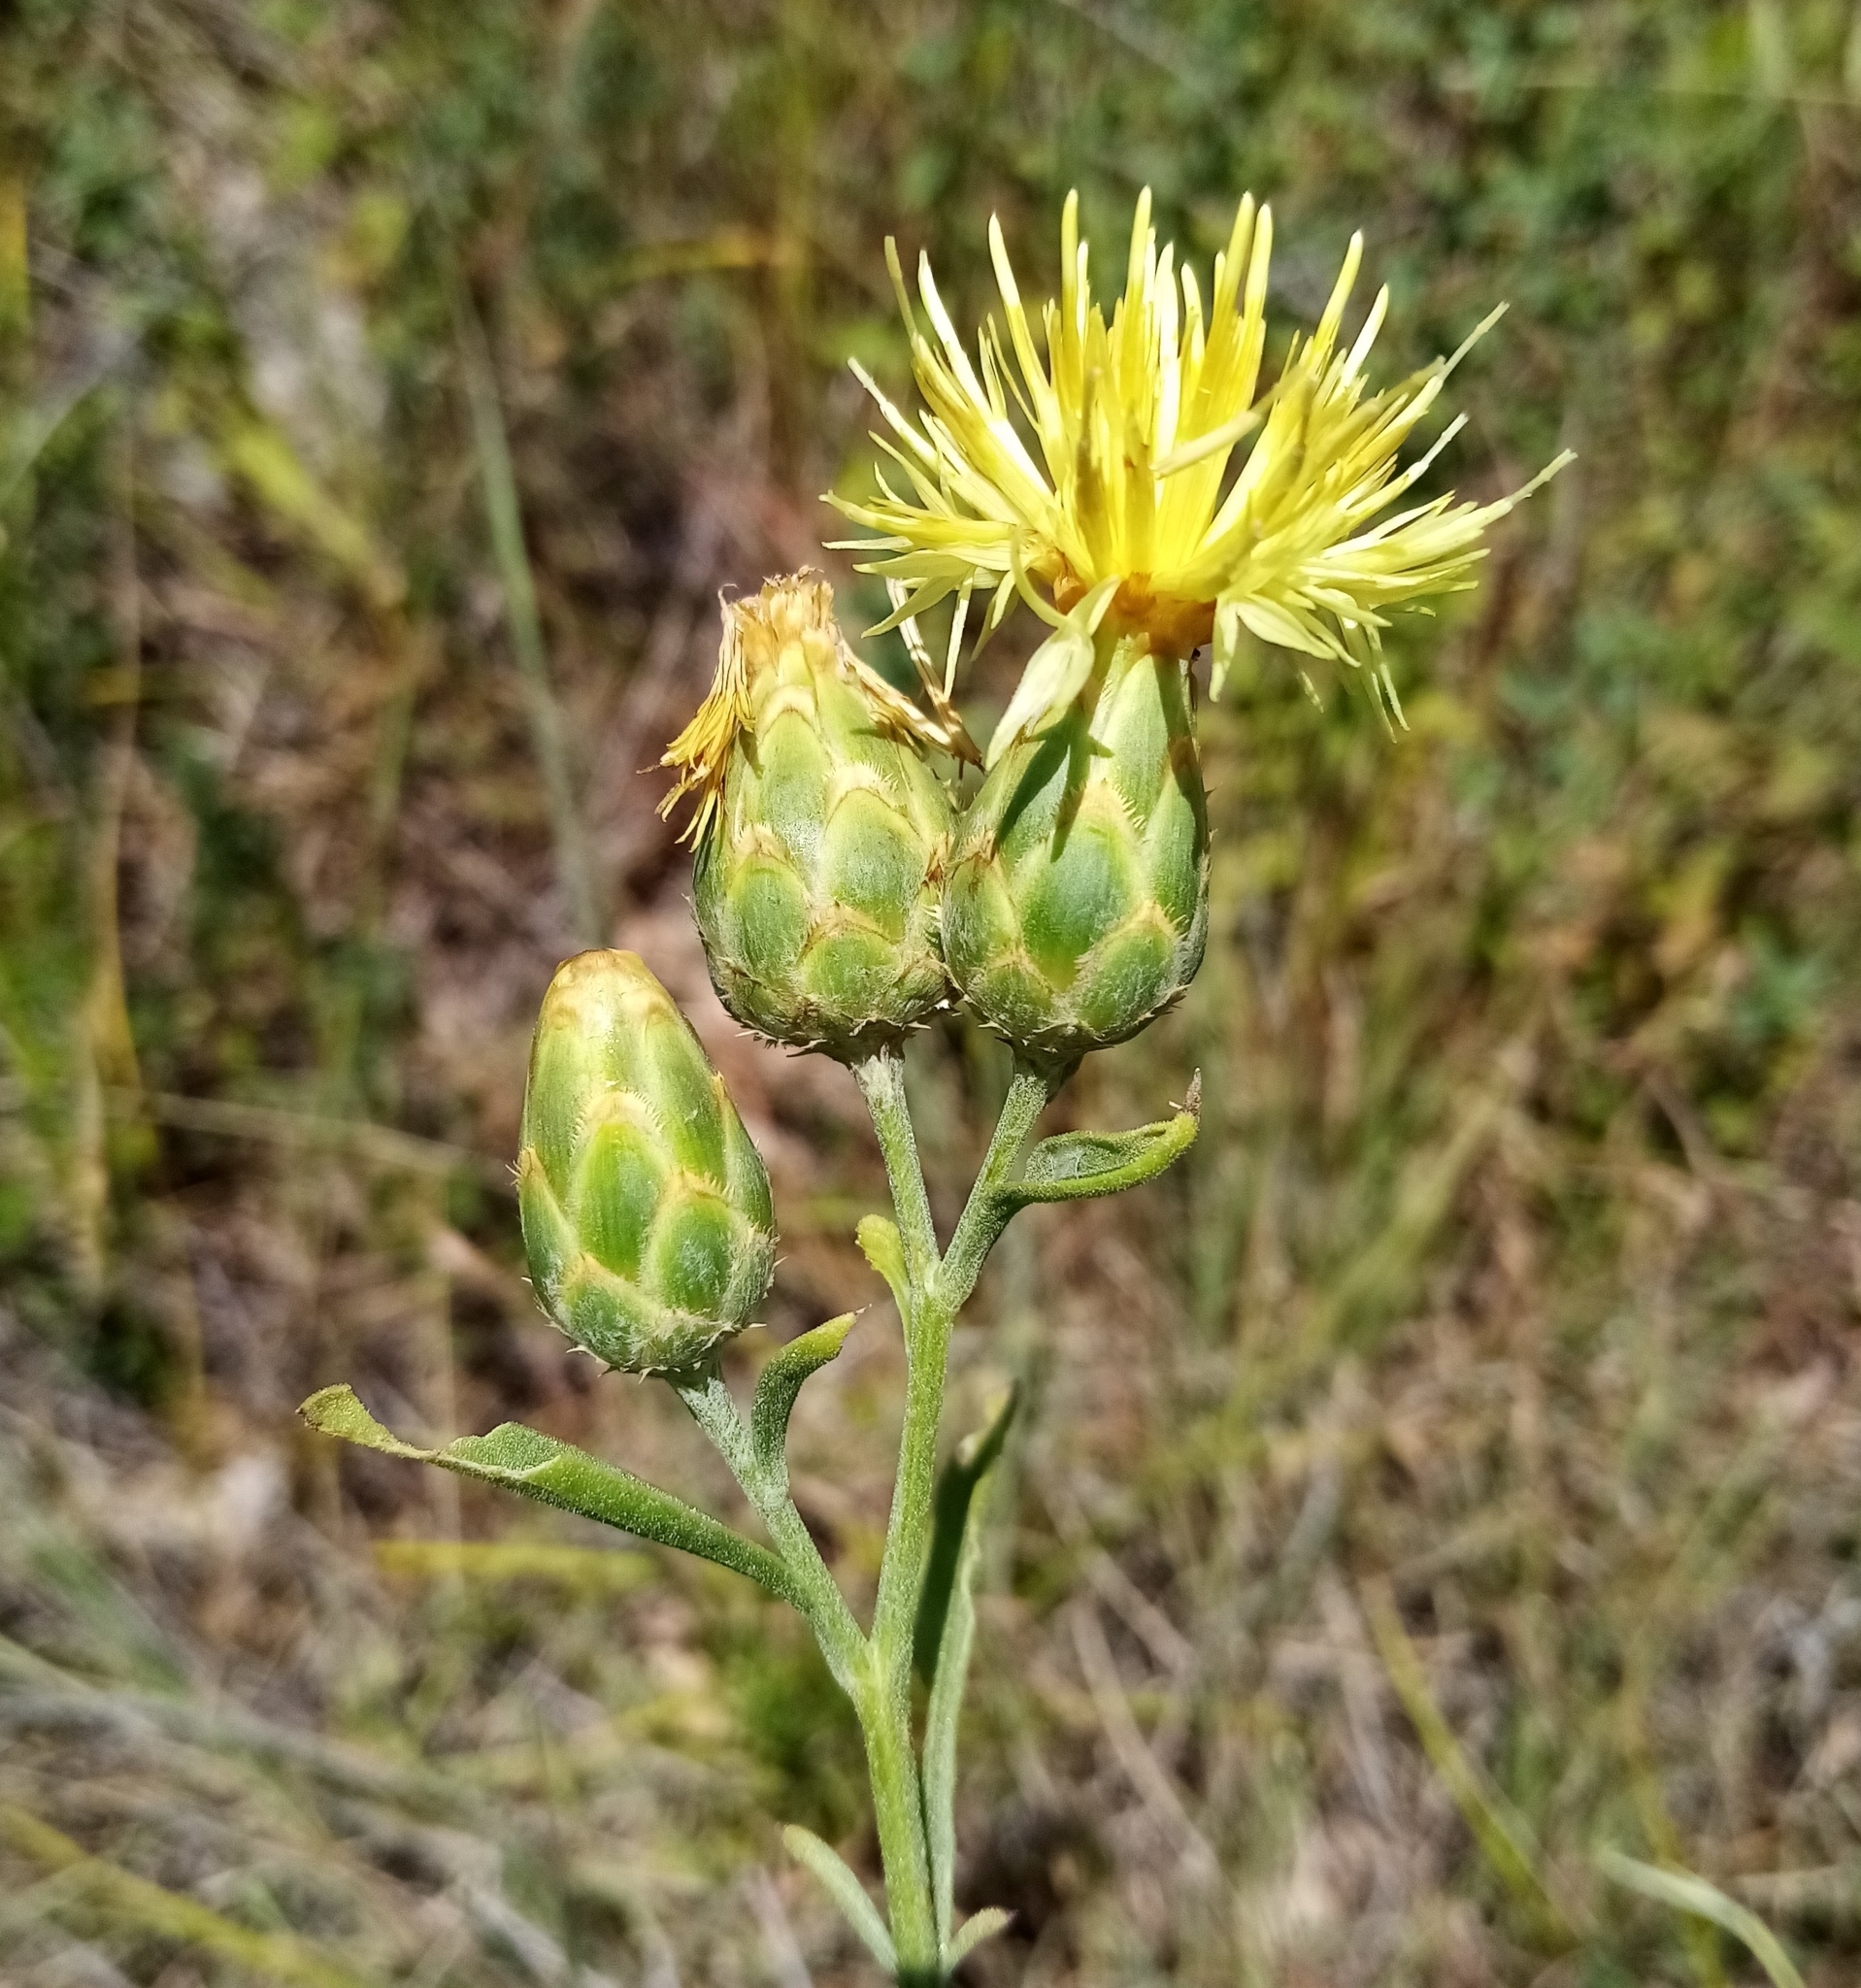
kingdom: Plantae
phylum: Tracheophyta
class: Magnoliopsida
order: Asterales
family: Asteraceae
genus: Centaurea
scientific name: Centaurea salonitana
